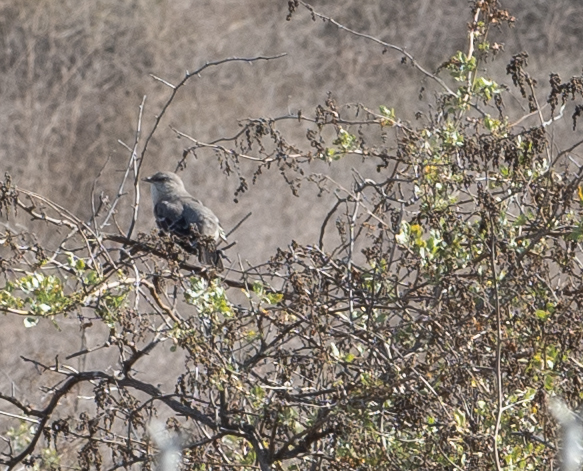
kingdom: Animalia
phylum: Chordata
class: Aves
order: Passeriformes
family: Mimidae
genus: Mimus
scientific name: Mimus polyglottos
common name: Northern mockingbird
